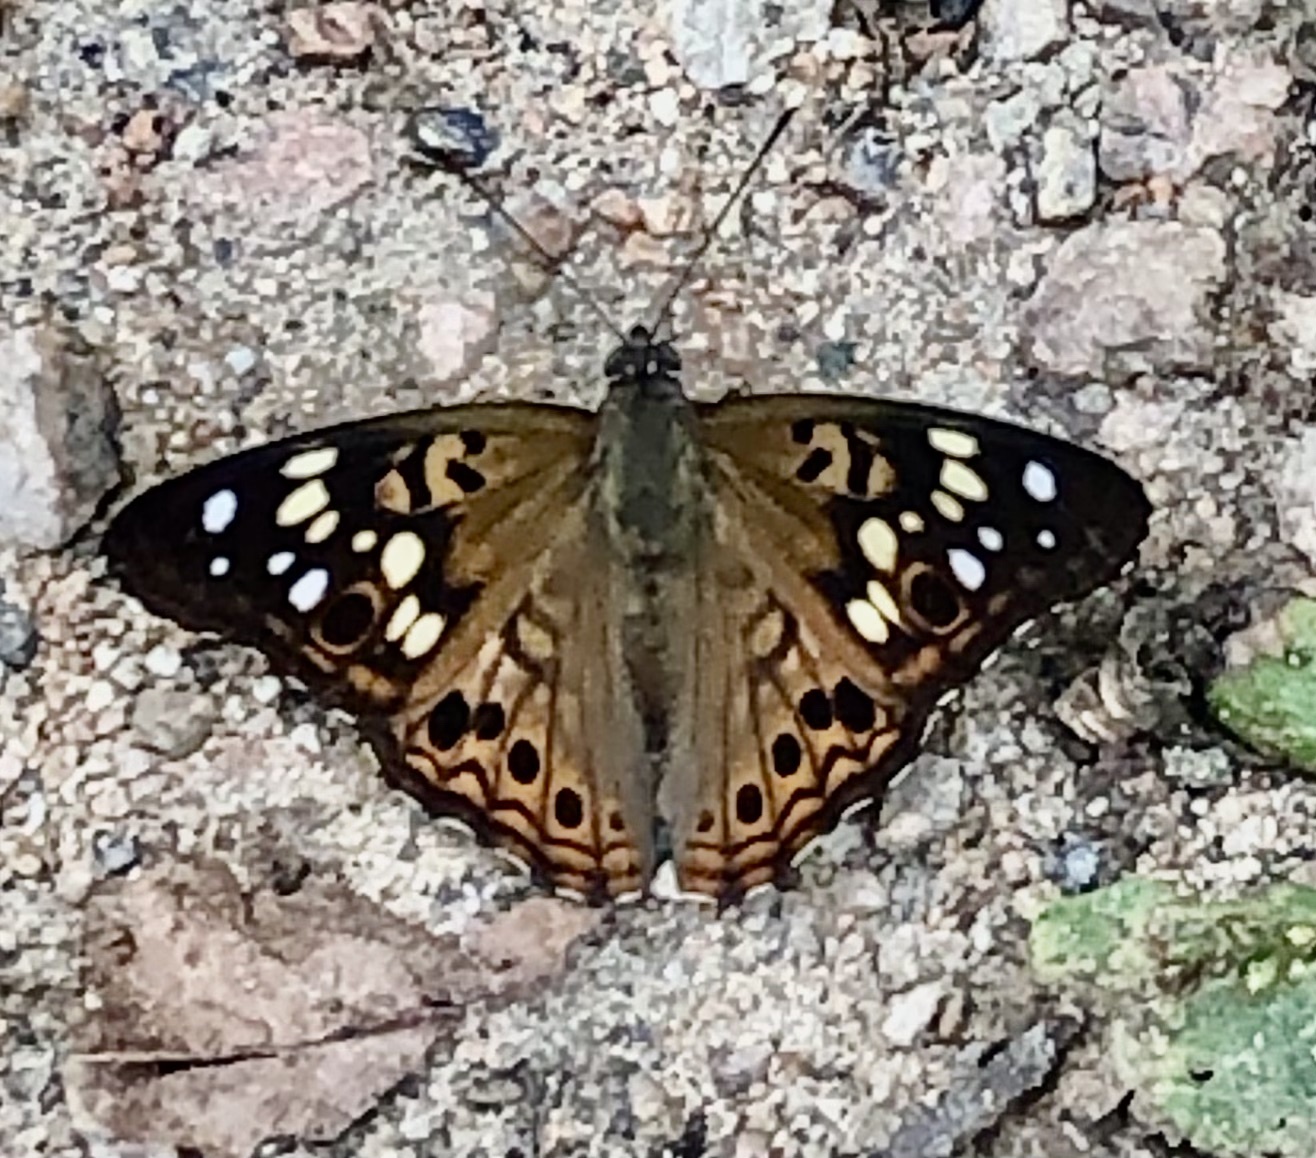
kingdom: Animalia
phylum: Arthropoda
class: Insecta
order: Lepidoptera
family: Nymphalidae
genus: Asterocampa
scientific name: Asterocampa celtis
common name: Hackberry emperor
